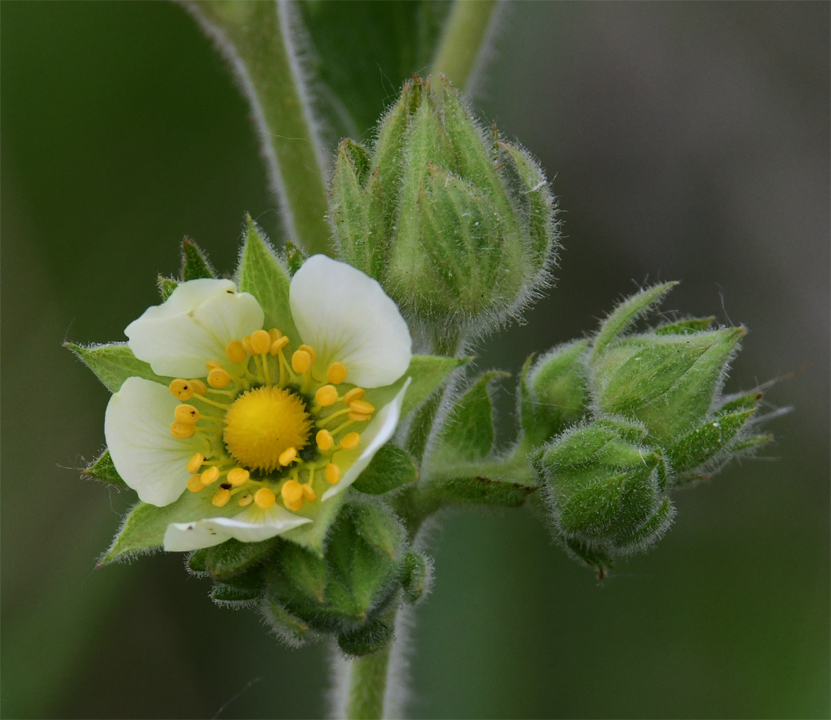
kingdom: Plantae
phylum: Tracheophyta
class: Magnoliopsida
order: Rosales
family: Rosaceae
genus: Drymocallis
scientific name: Drymocallis arguta
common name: Tall cinquefoil
